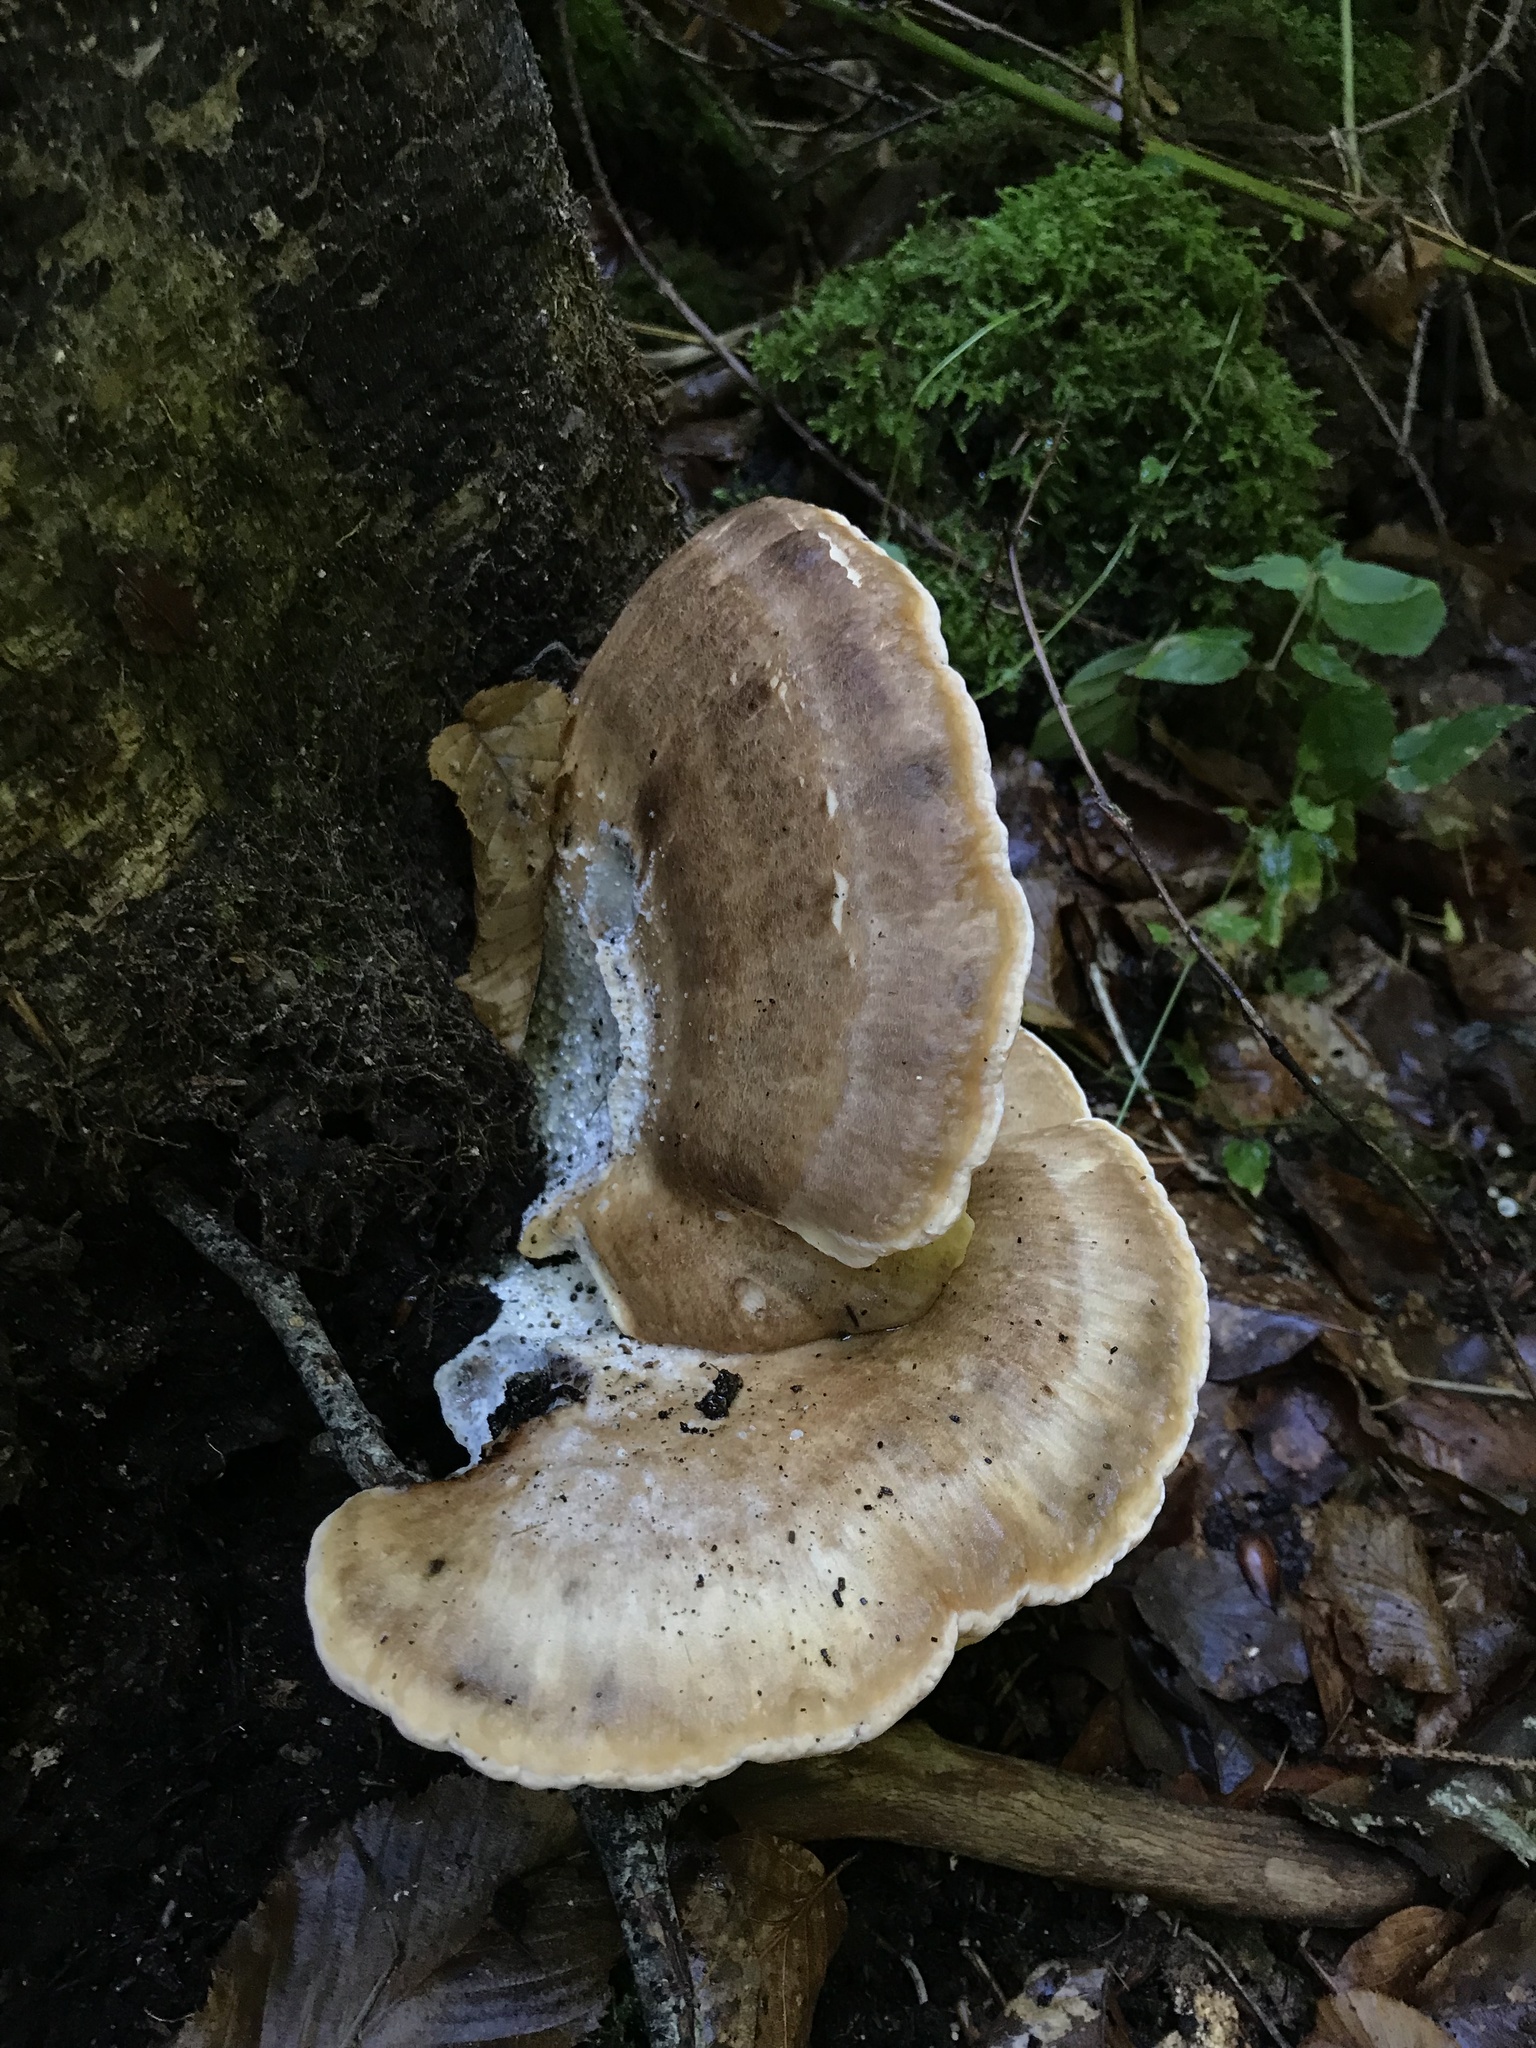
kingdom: Fungi
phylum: Basidiomycota
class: Agaricomycetes
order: Polyporales
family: Meripilaceae
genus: Meripilus
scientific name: Meripilus giganteus
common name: Giant polypore
